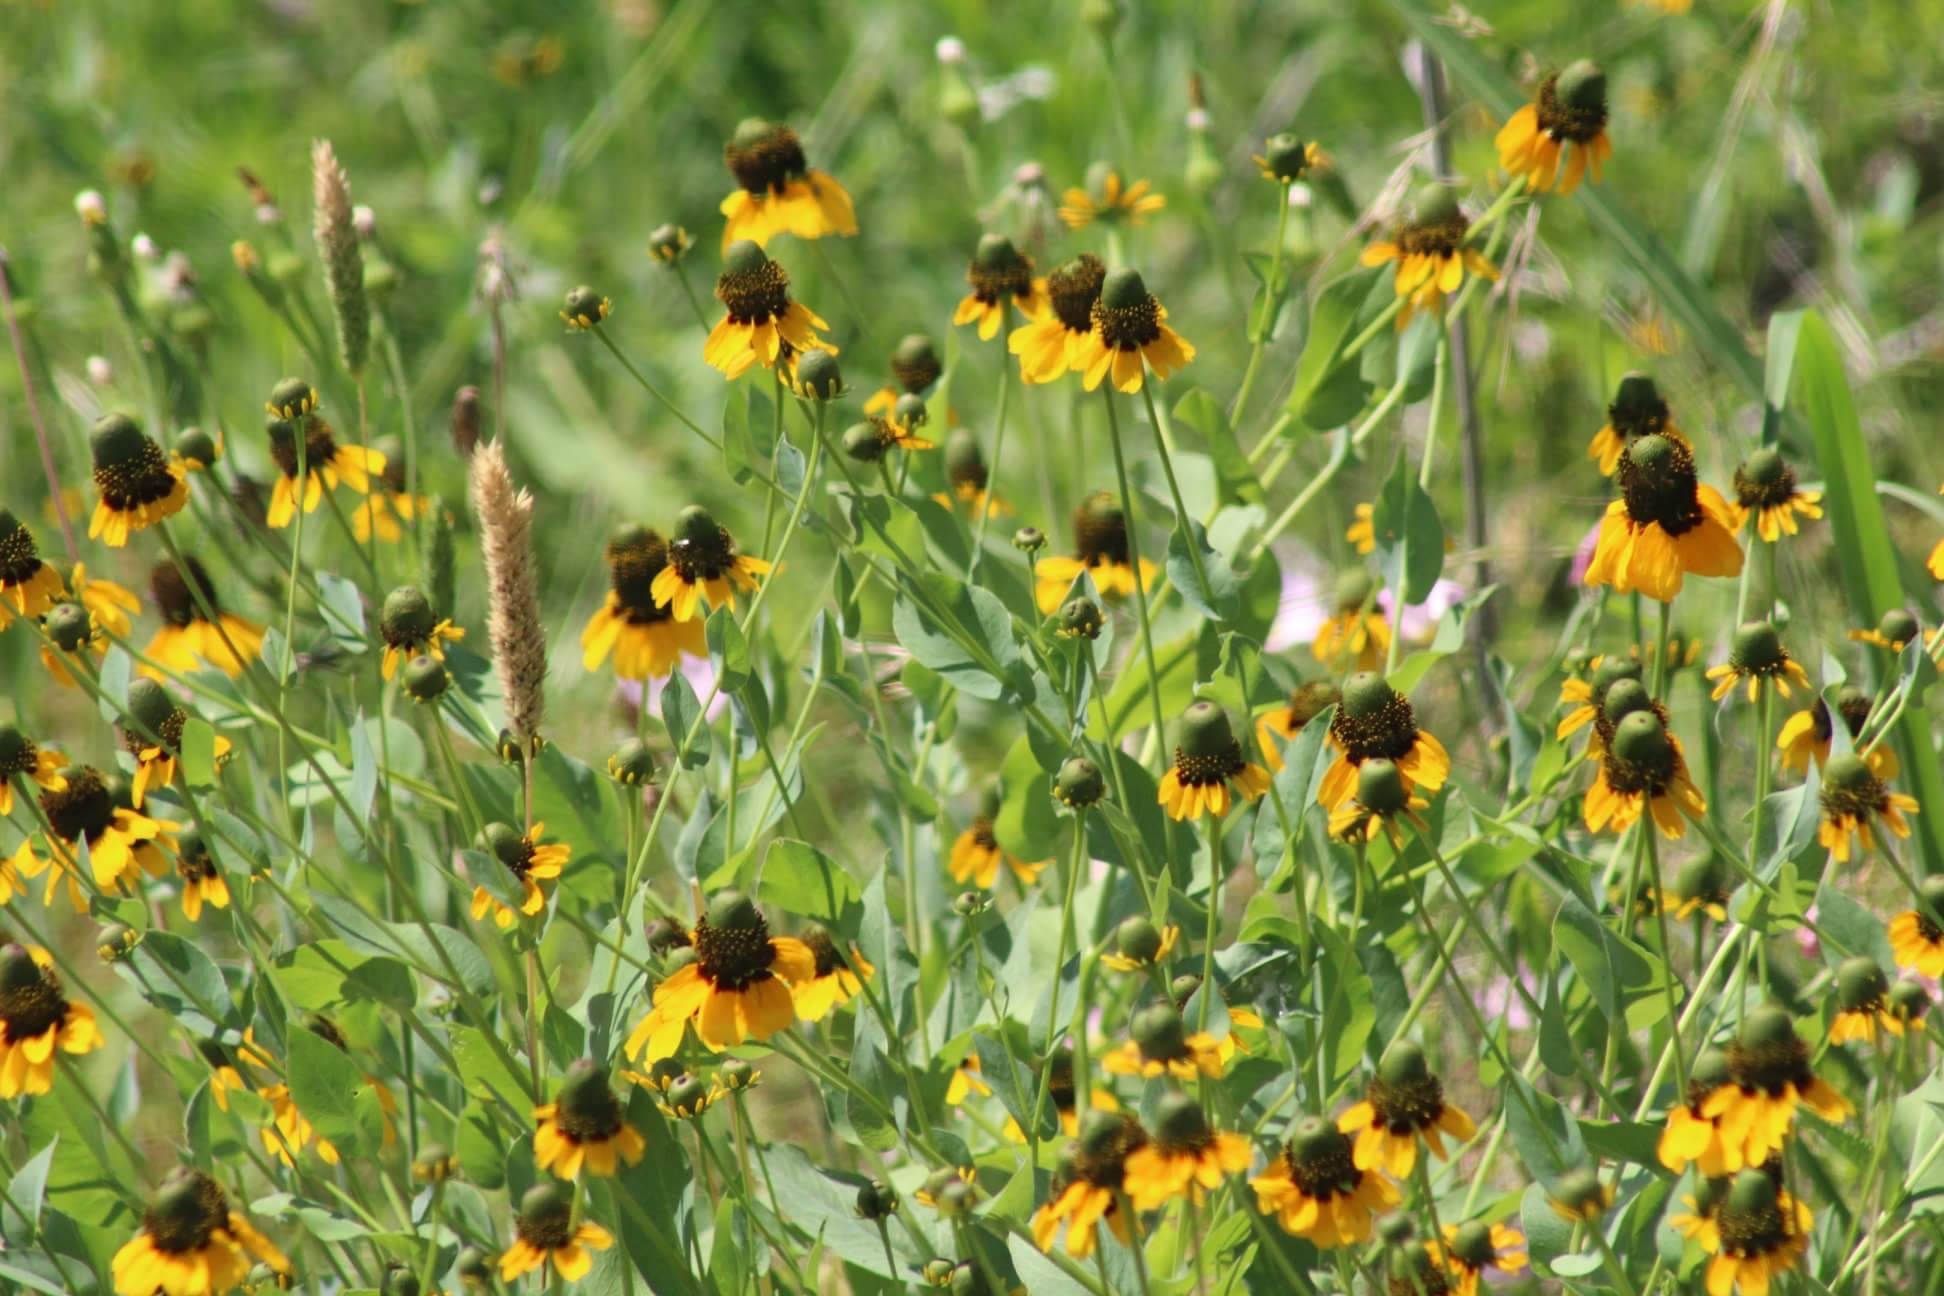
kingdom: Plantae
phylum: Tracheophyta
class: Magnoliopsida
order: Asterales
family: Asteraceae
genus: Rudbeckia
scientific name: Rudbeckia amplexicaulis
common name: Clasping-leaf coneflower
